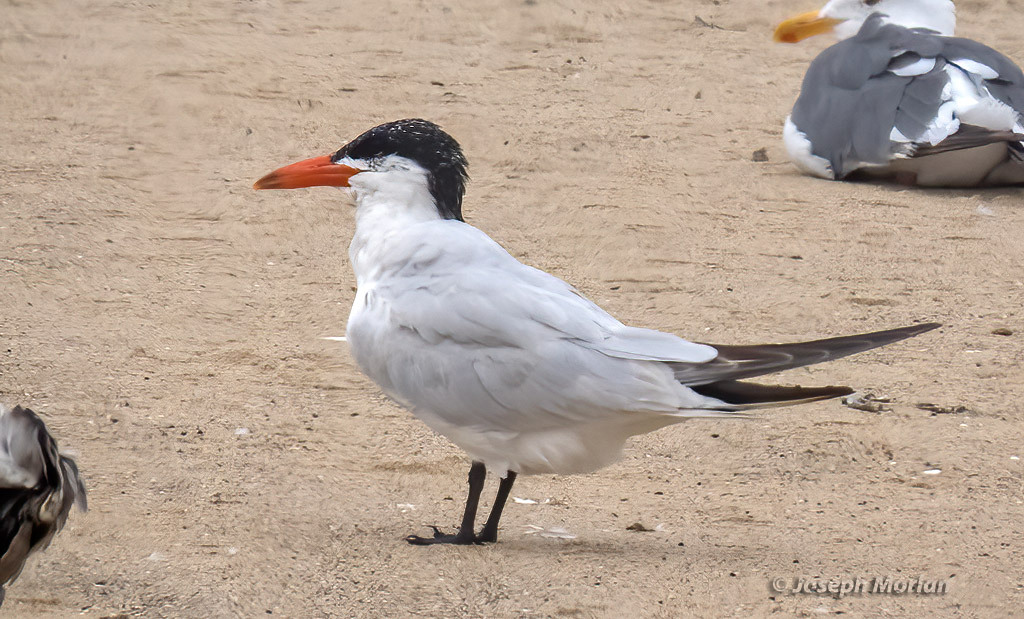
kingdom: Animalia
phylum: Chordata
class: Aves
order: Charadriiformes
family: Laridae
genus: Hydroprogne
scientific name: Hydroprogne caspia
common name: Caspian tern
